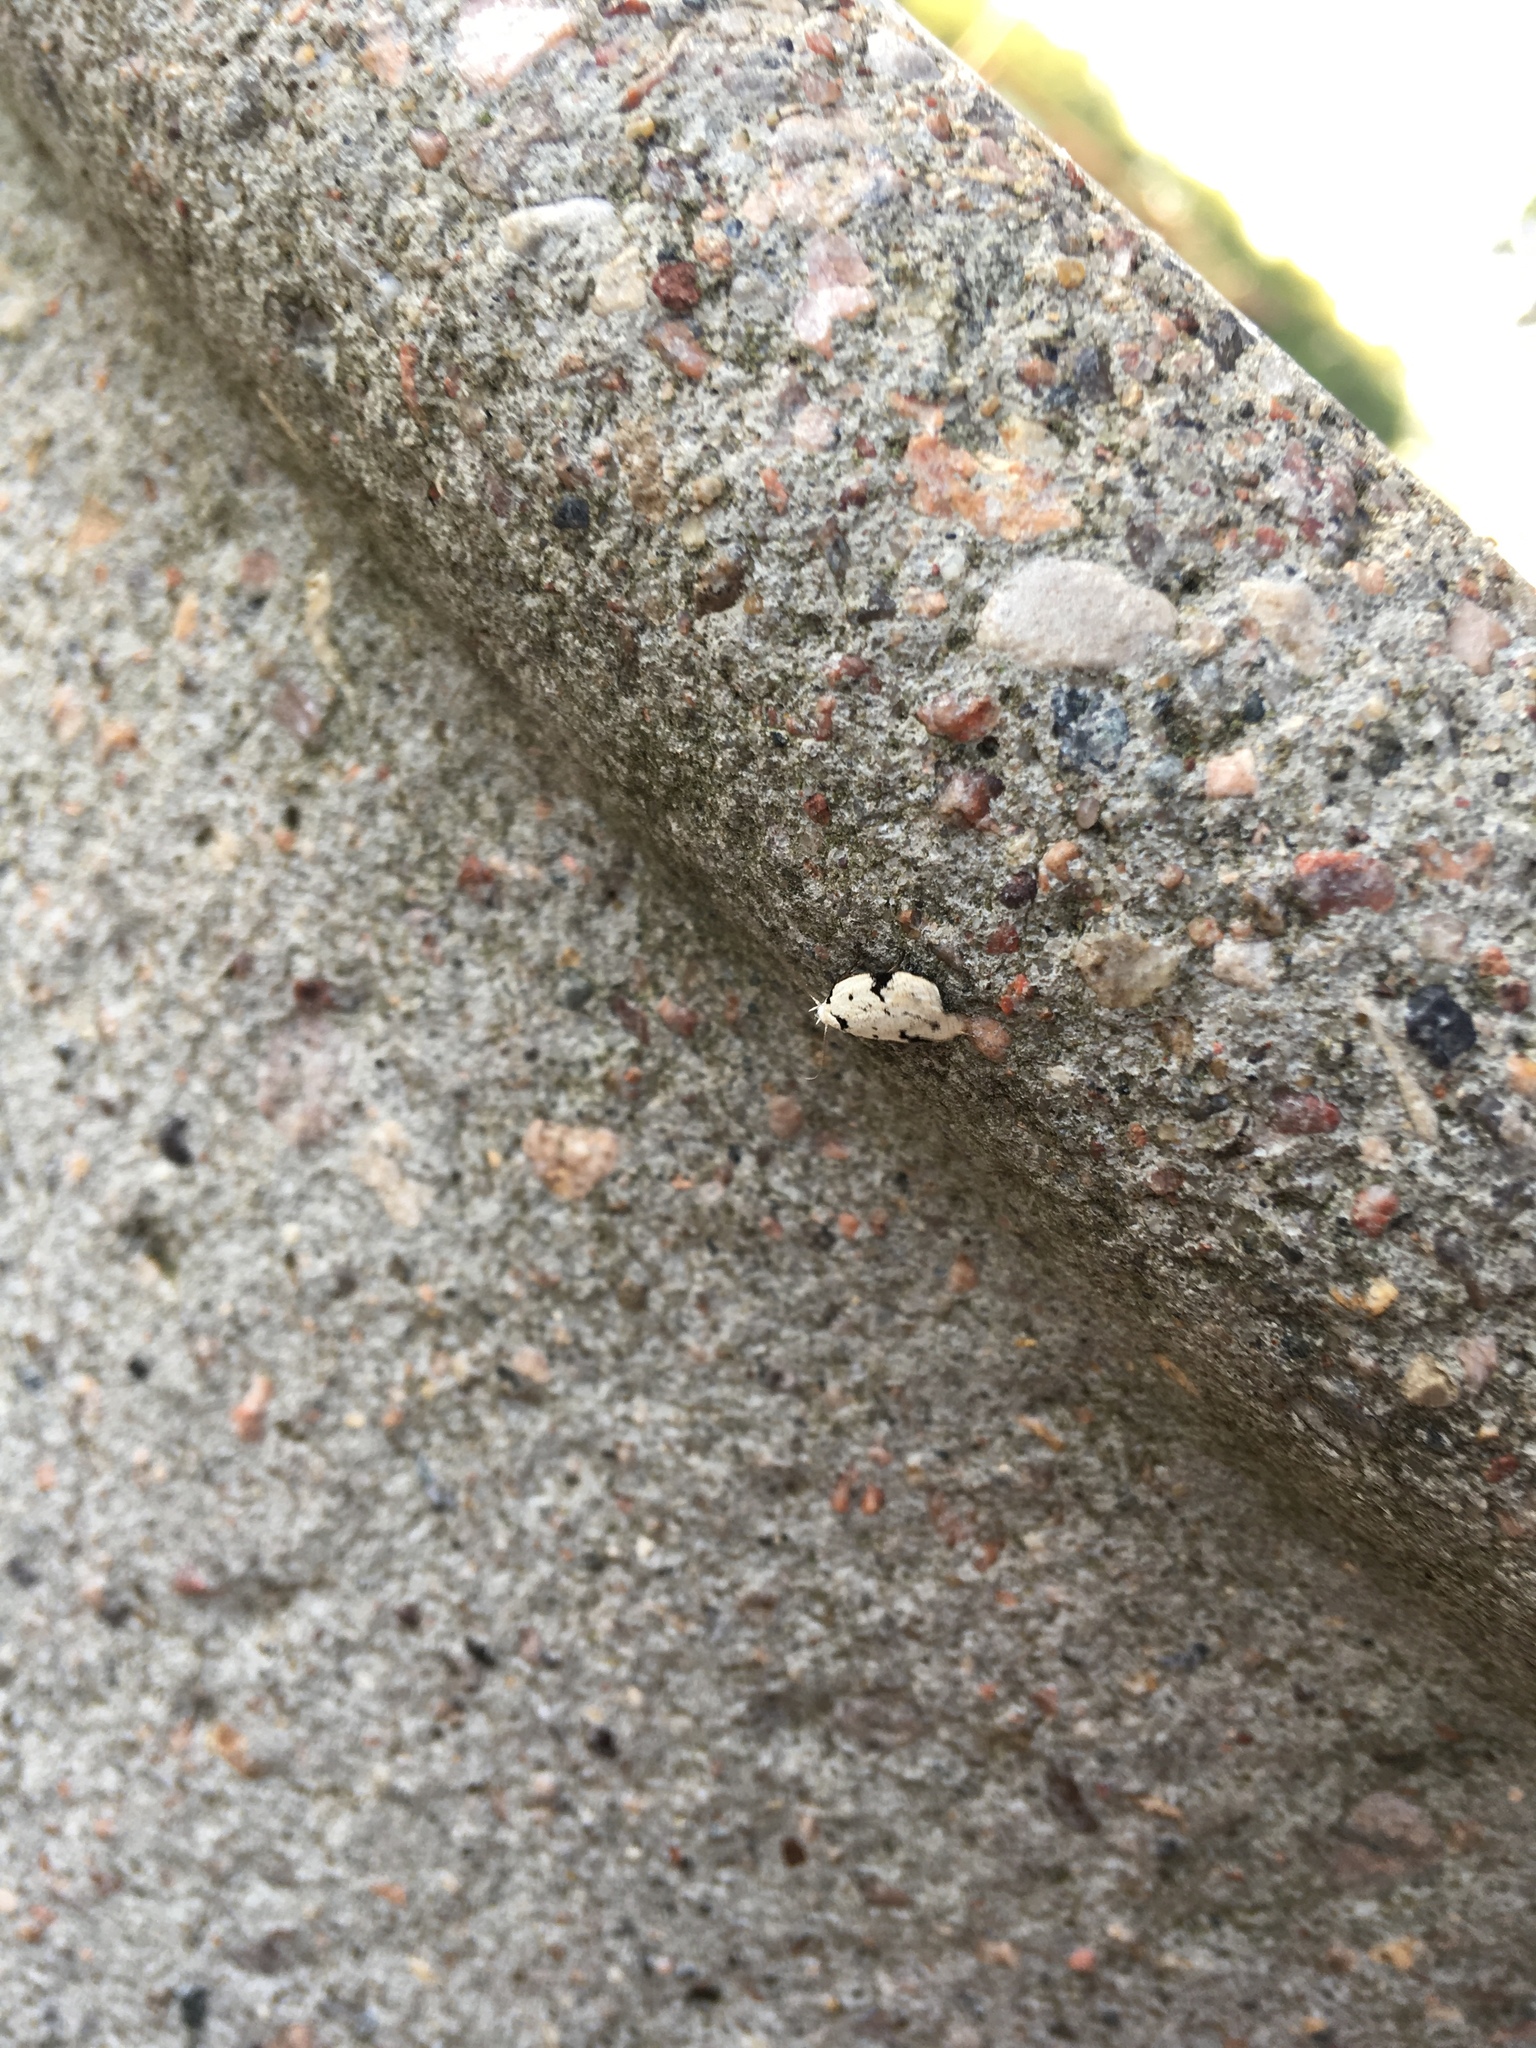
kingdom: Animalia
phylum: Arthropoda
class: Insecta
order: Lepidoptera
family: Oecophoridae
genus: Inga
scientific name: Inga sparsiciliella
